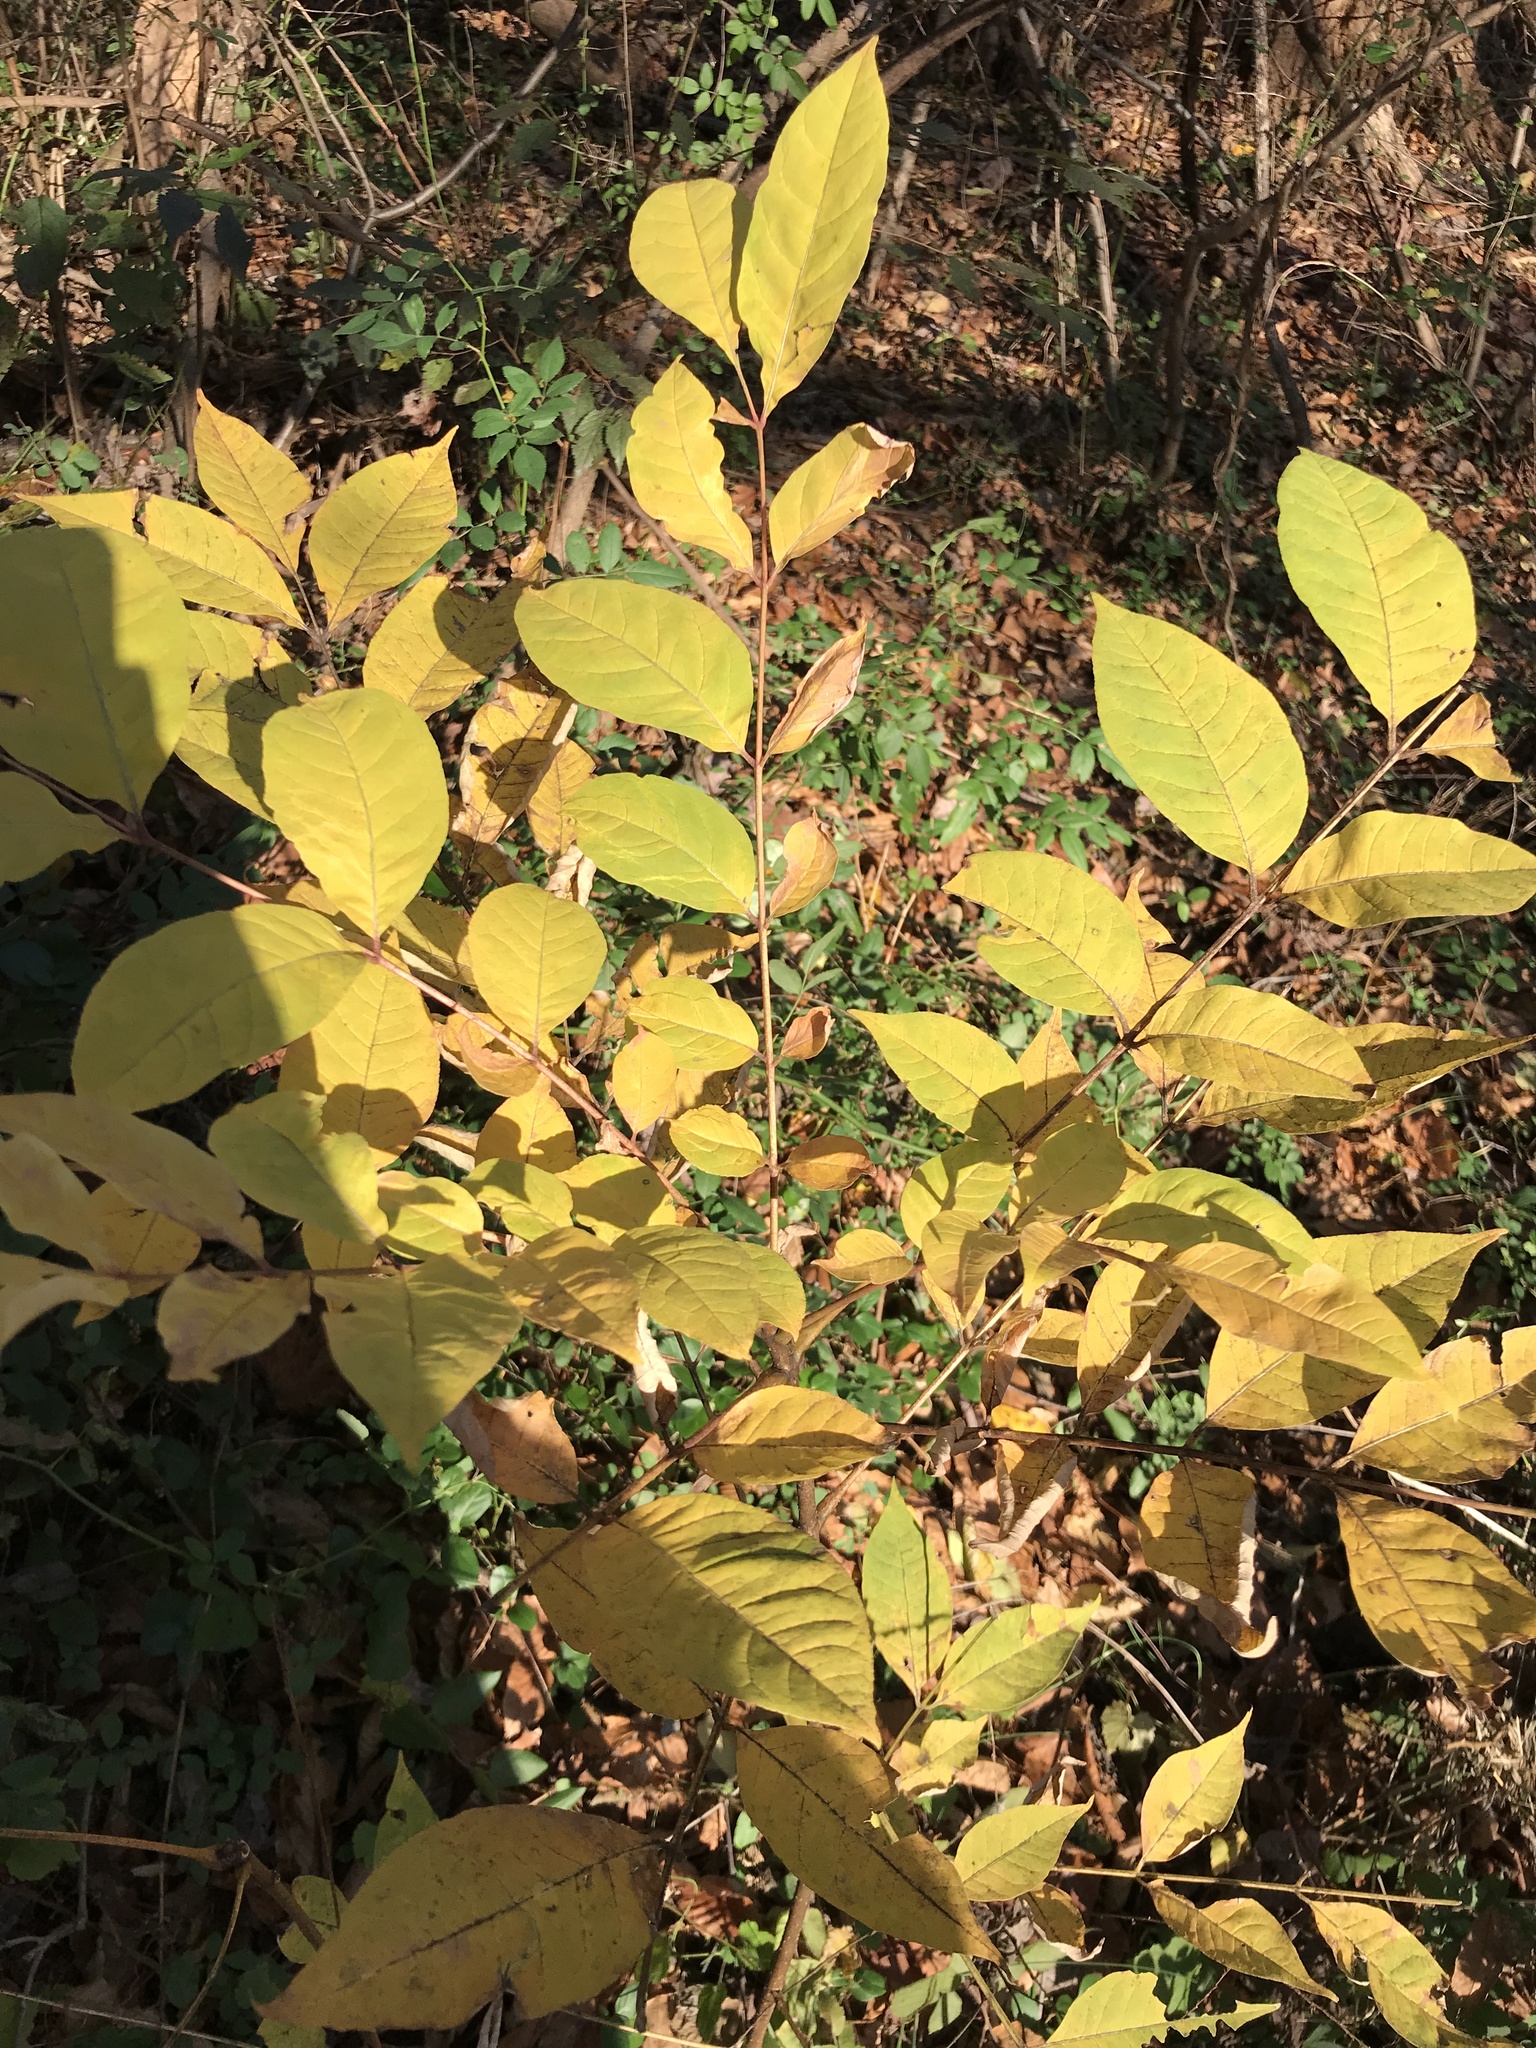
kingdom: Plantae
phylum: Tracheophyta
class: Magnoliopsida
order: Sapindales
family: Rutaceae
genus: Phellodendron
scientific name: Phellodendron amurense
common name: Amur corktree
